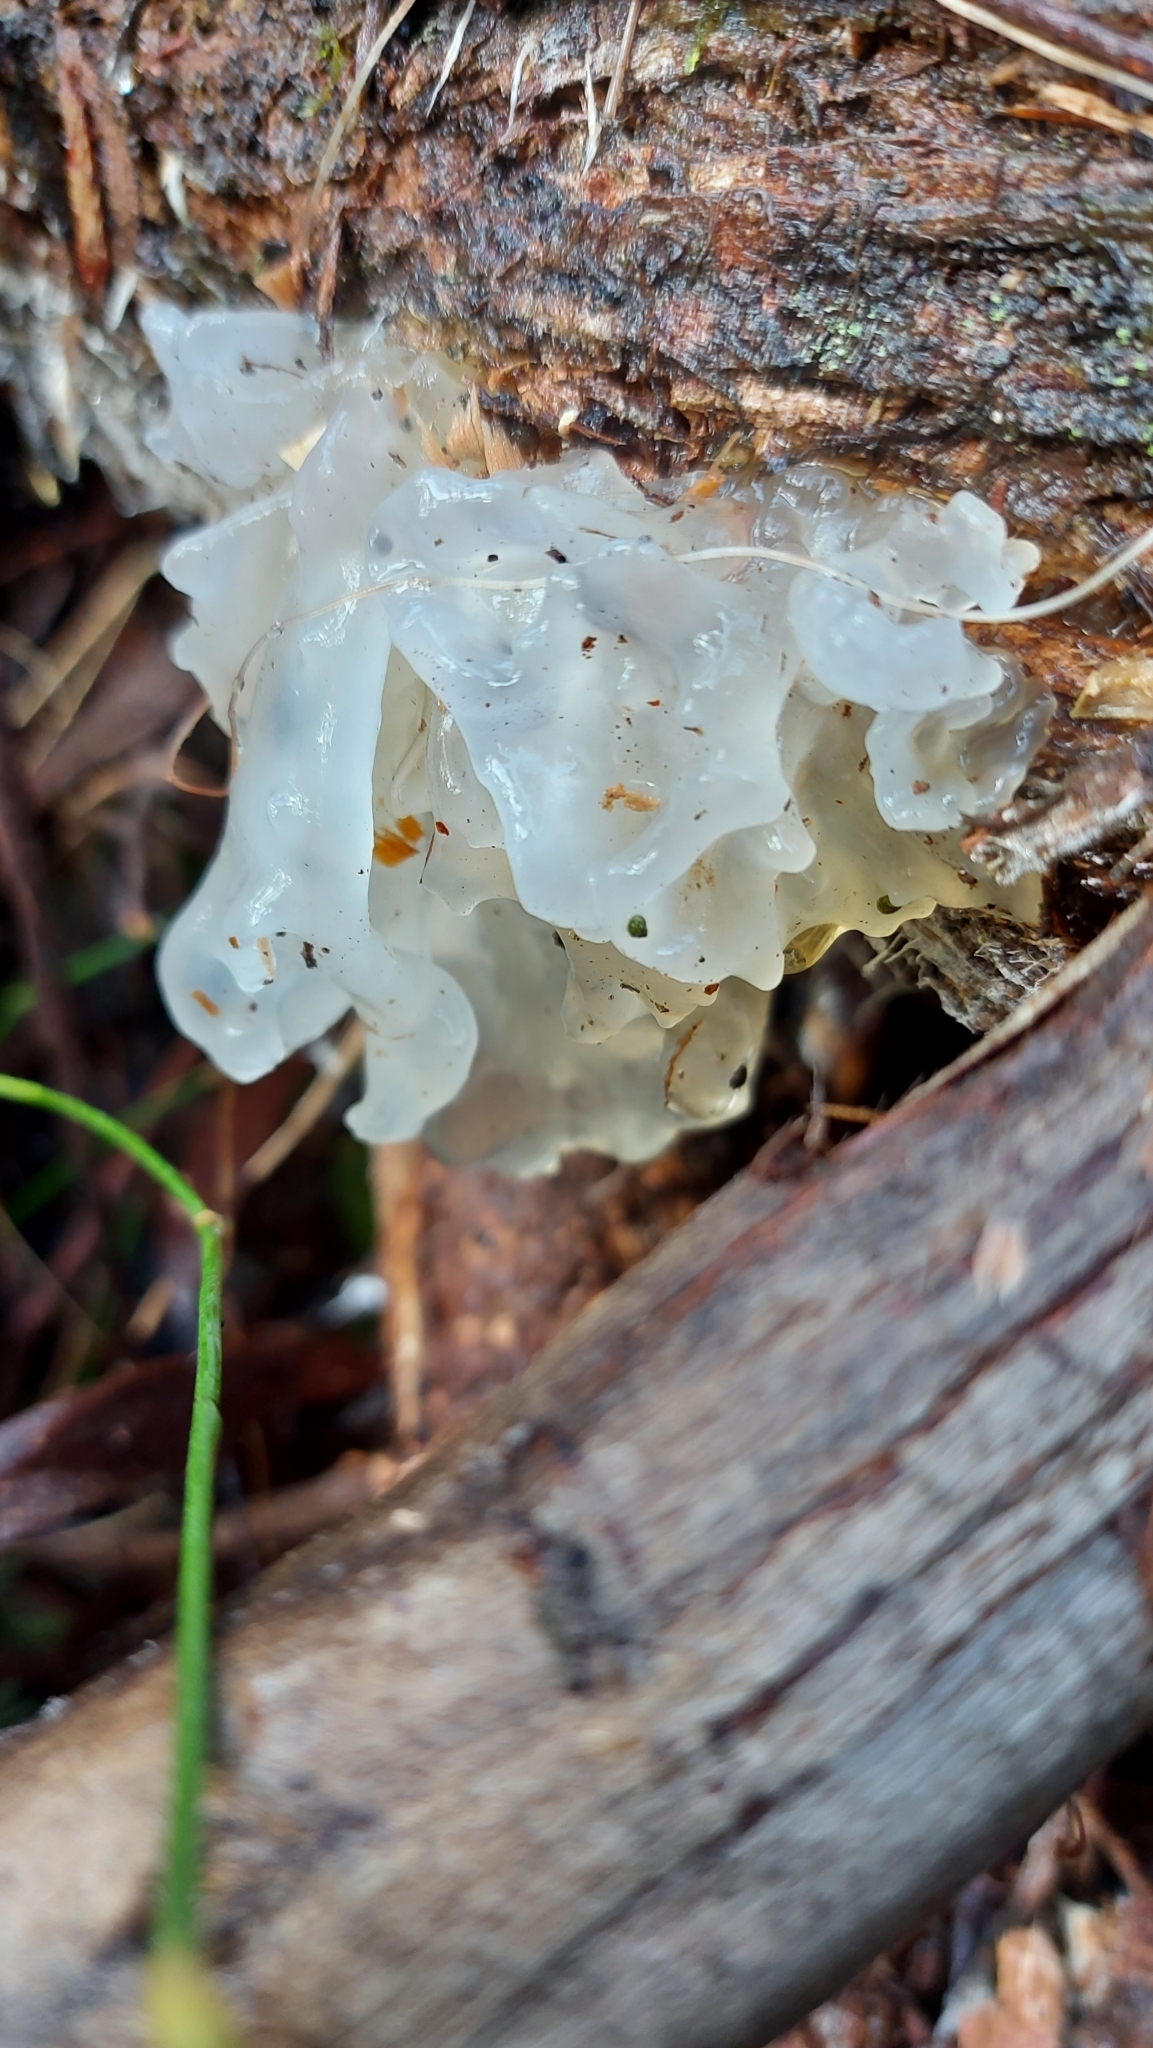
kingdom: Fungi
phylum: Basidiomycota
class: Tremellomycetes
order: Tremellales
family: Tremellaceae
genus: Tremella
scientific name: Tremella fuciformis
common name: Snow fungus
